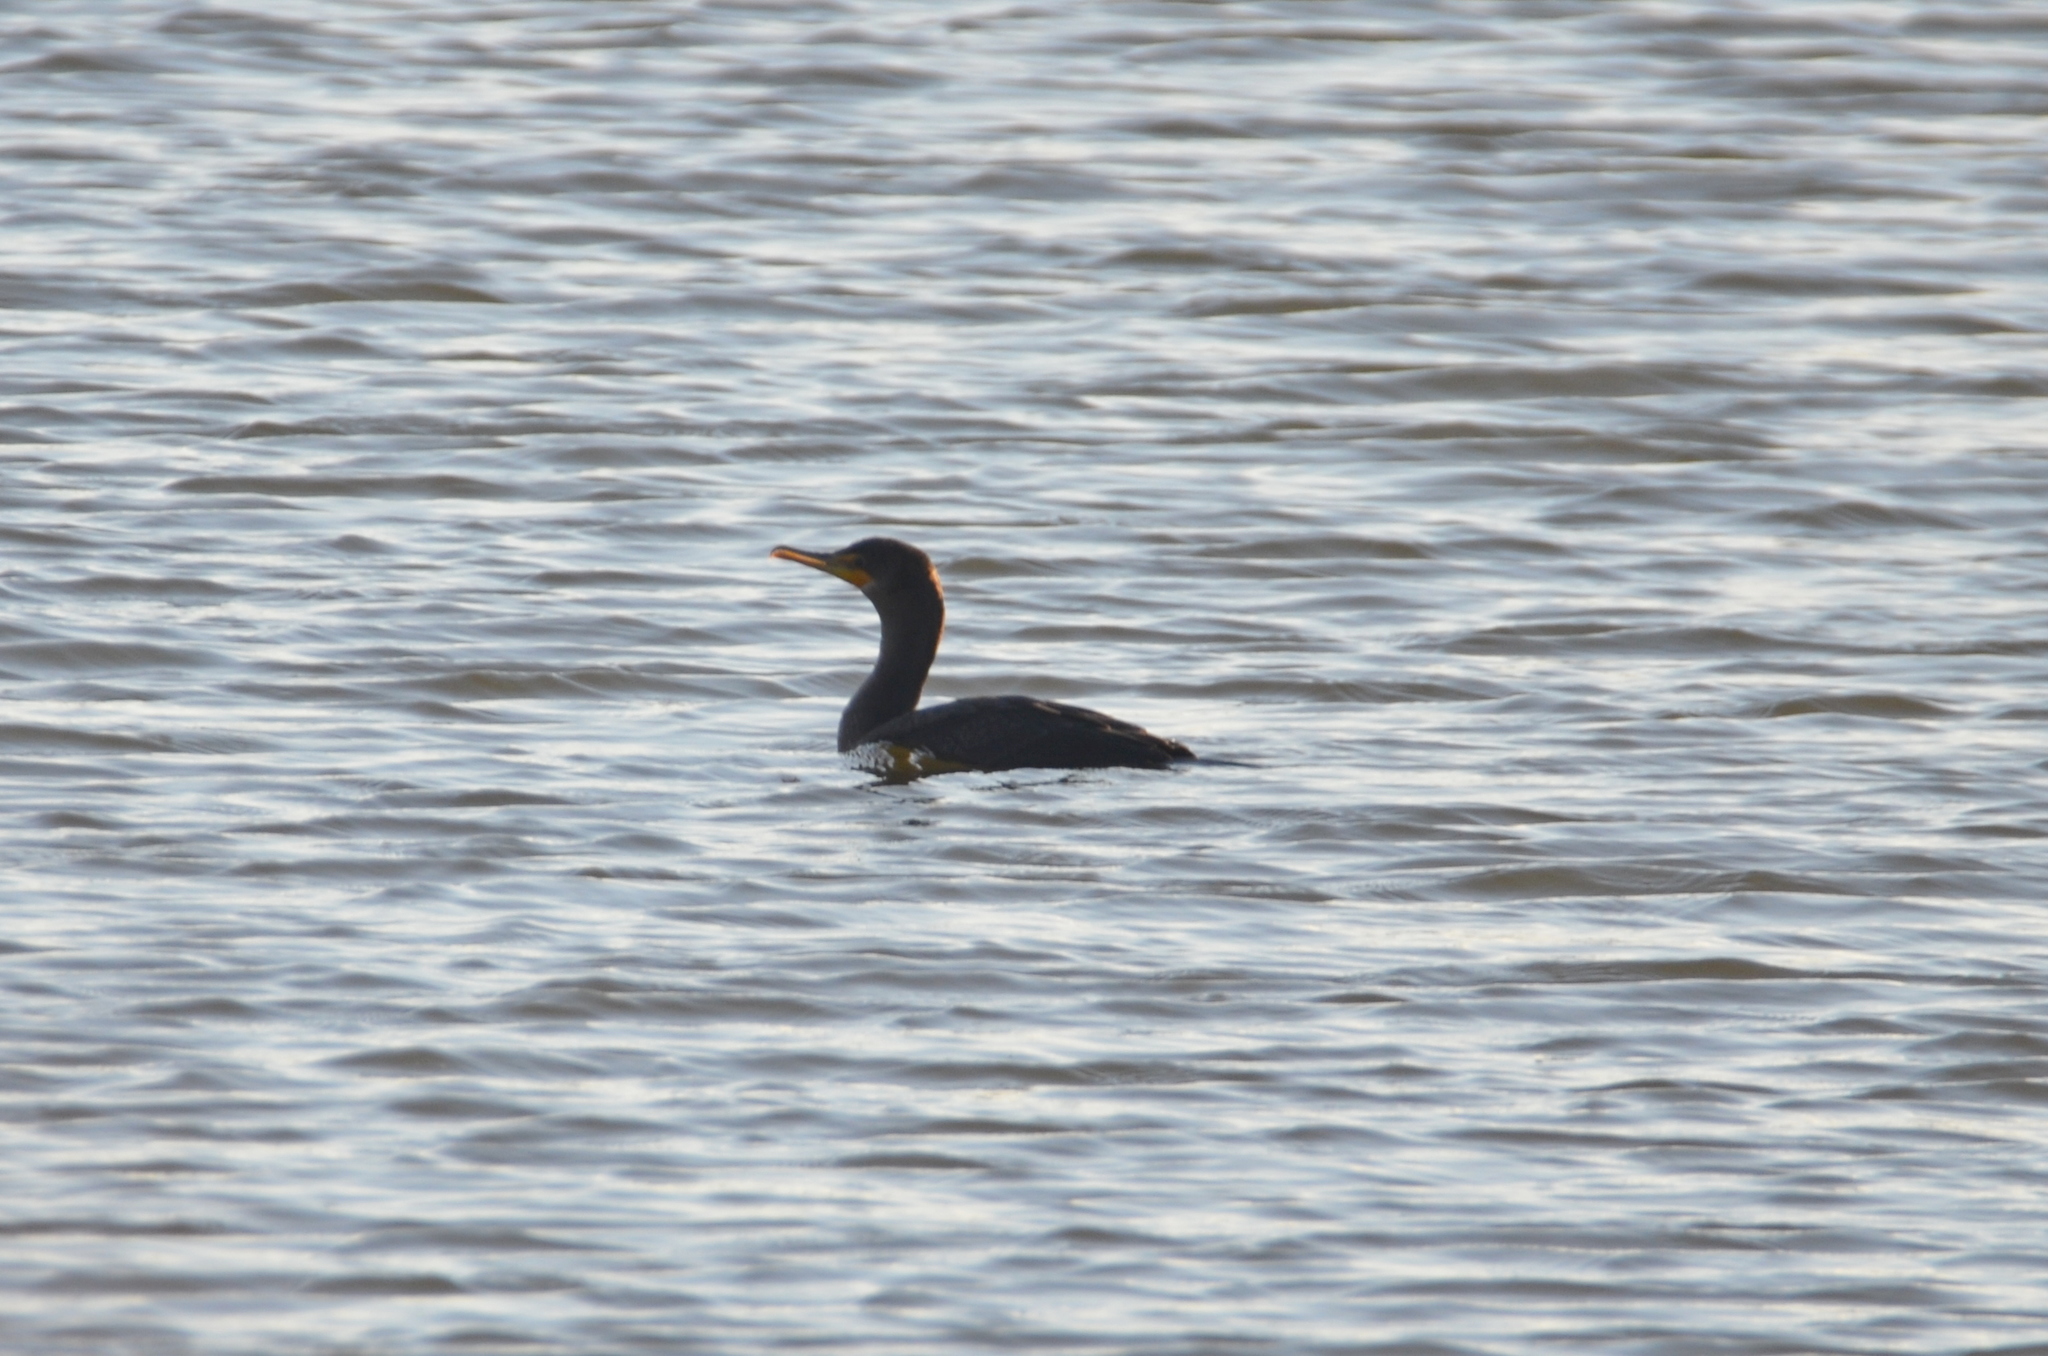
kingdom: Animalia
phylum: Chordata
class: Aves
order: Suliformes
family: Phalacrocoracidae
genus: Phalacrocorax
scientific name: Phalacrocorax auritus
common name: Double-crested cormorant
